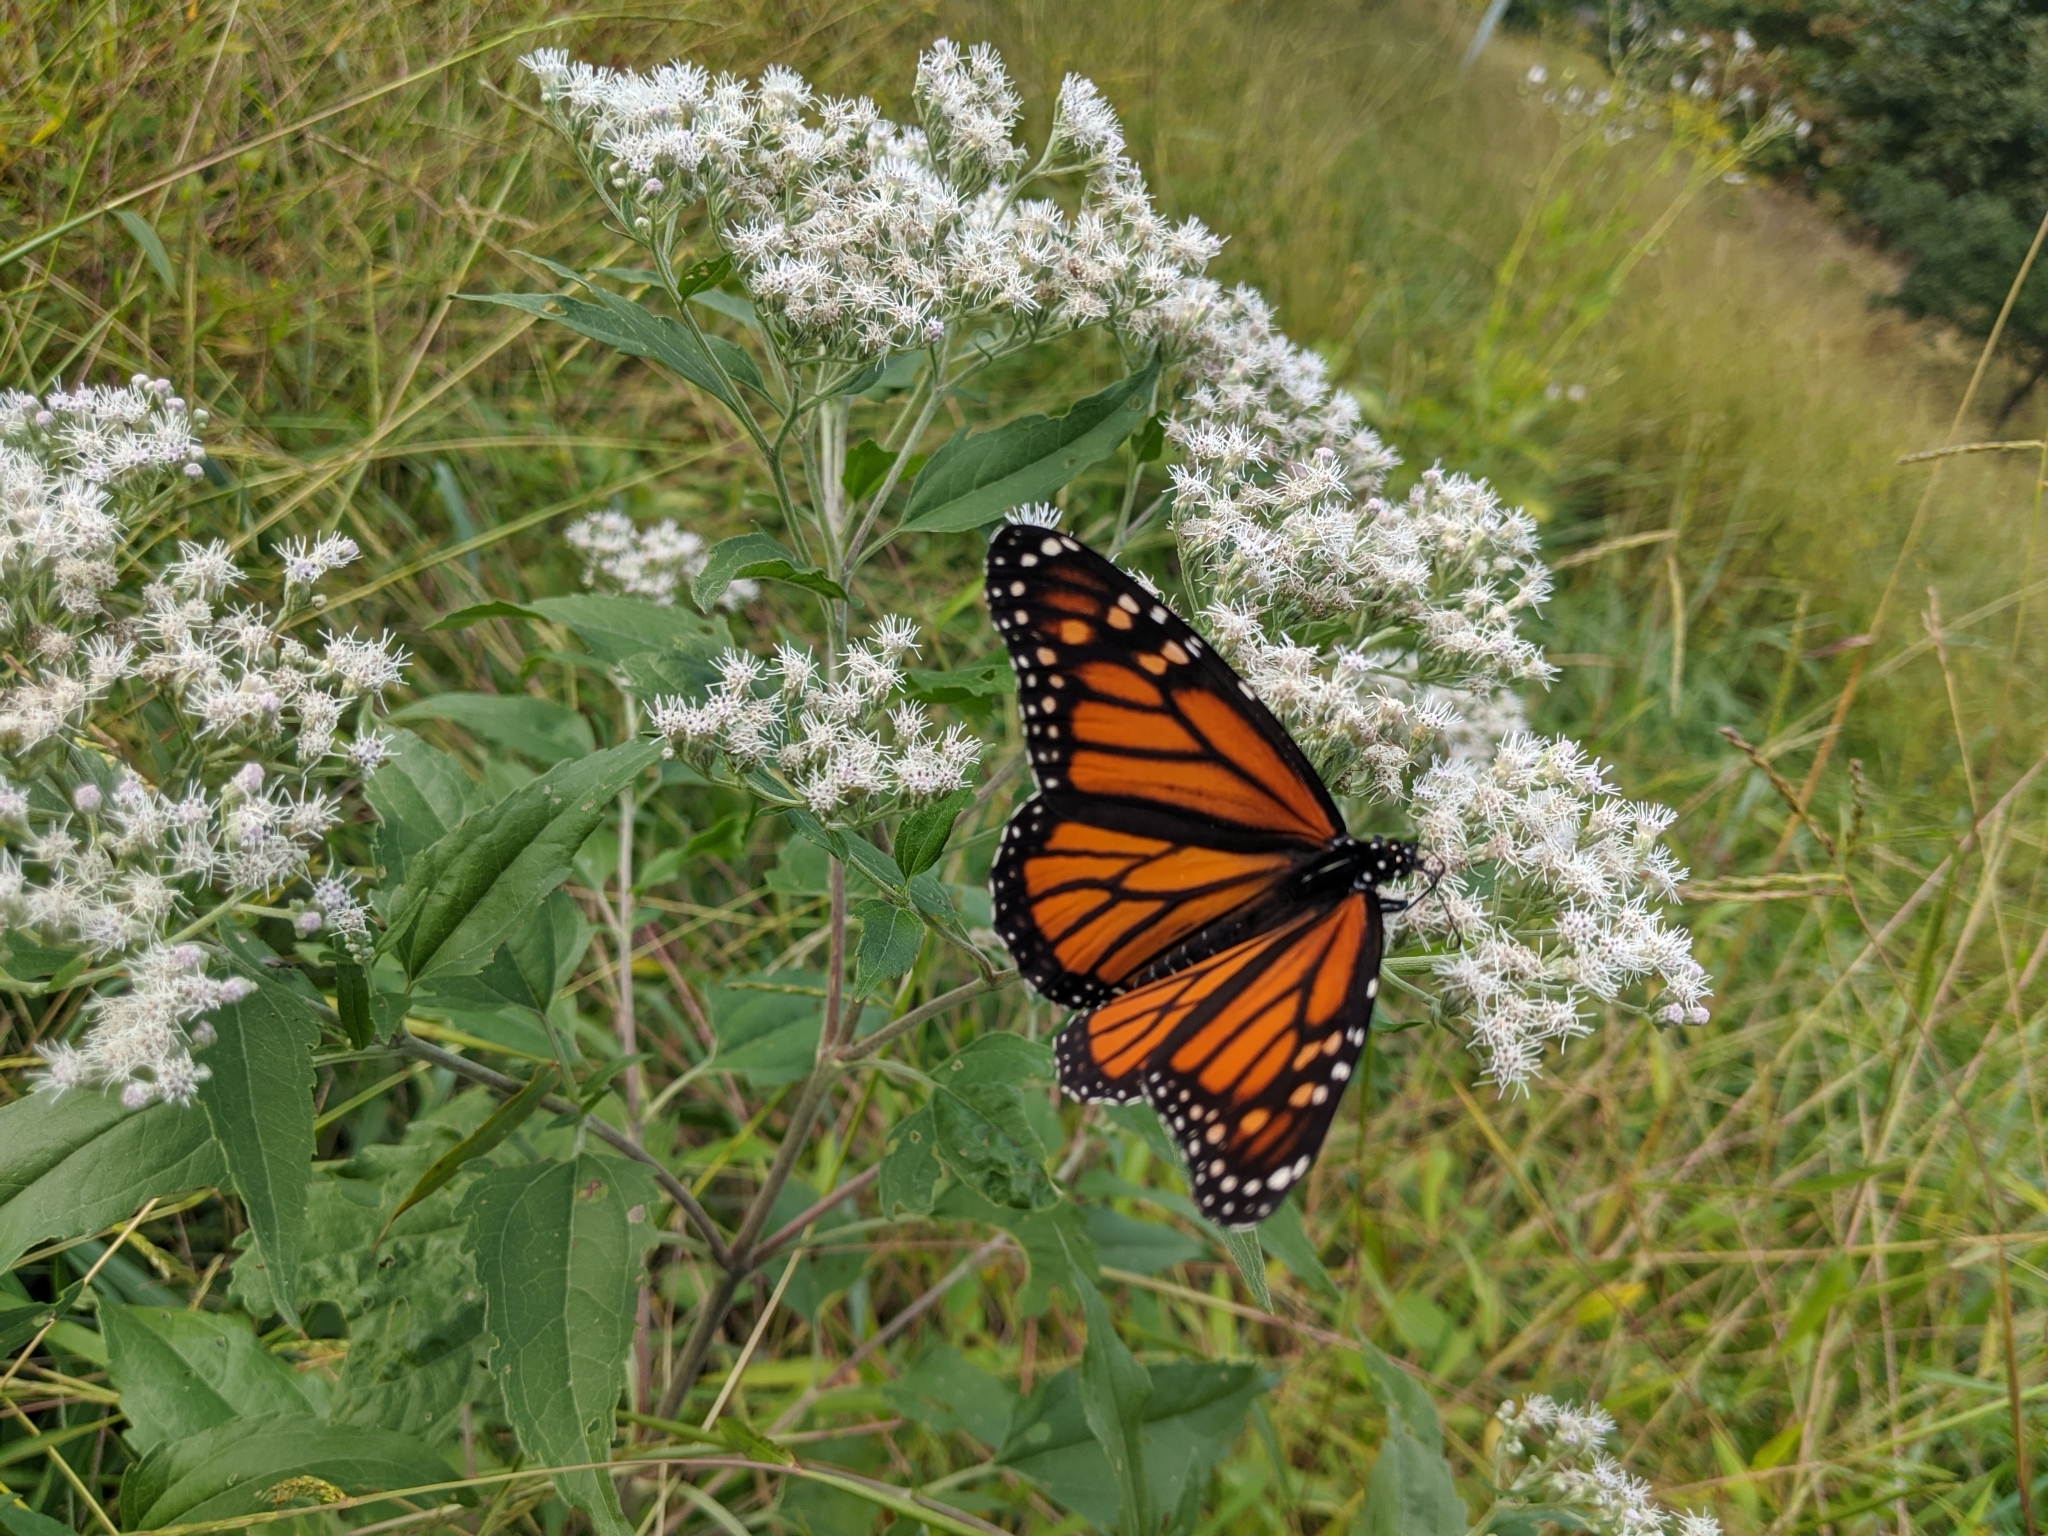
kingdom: Animalia
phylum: Arthropoda
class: Insecta
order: Lepidoptera
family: Nymphalidae
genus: Danaus
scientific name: Danaus plexippus
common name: Monarch
